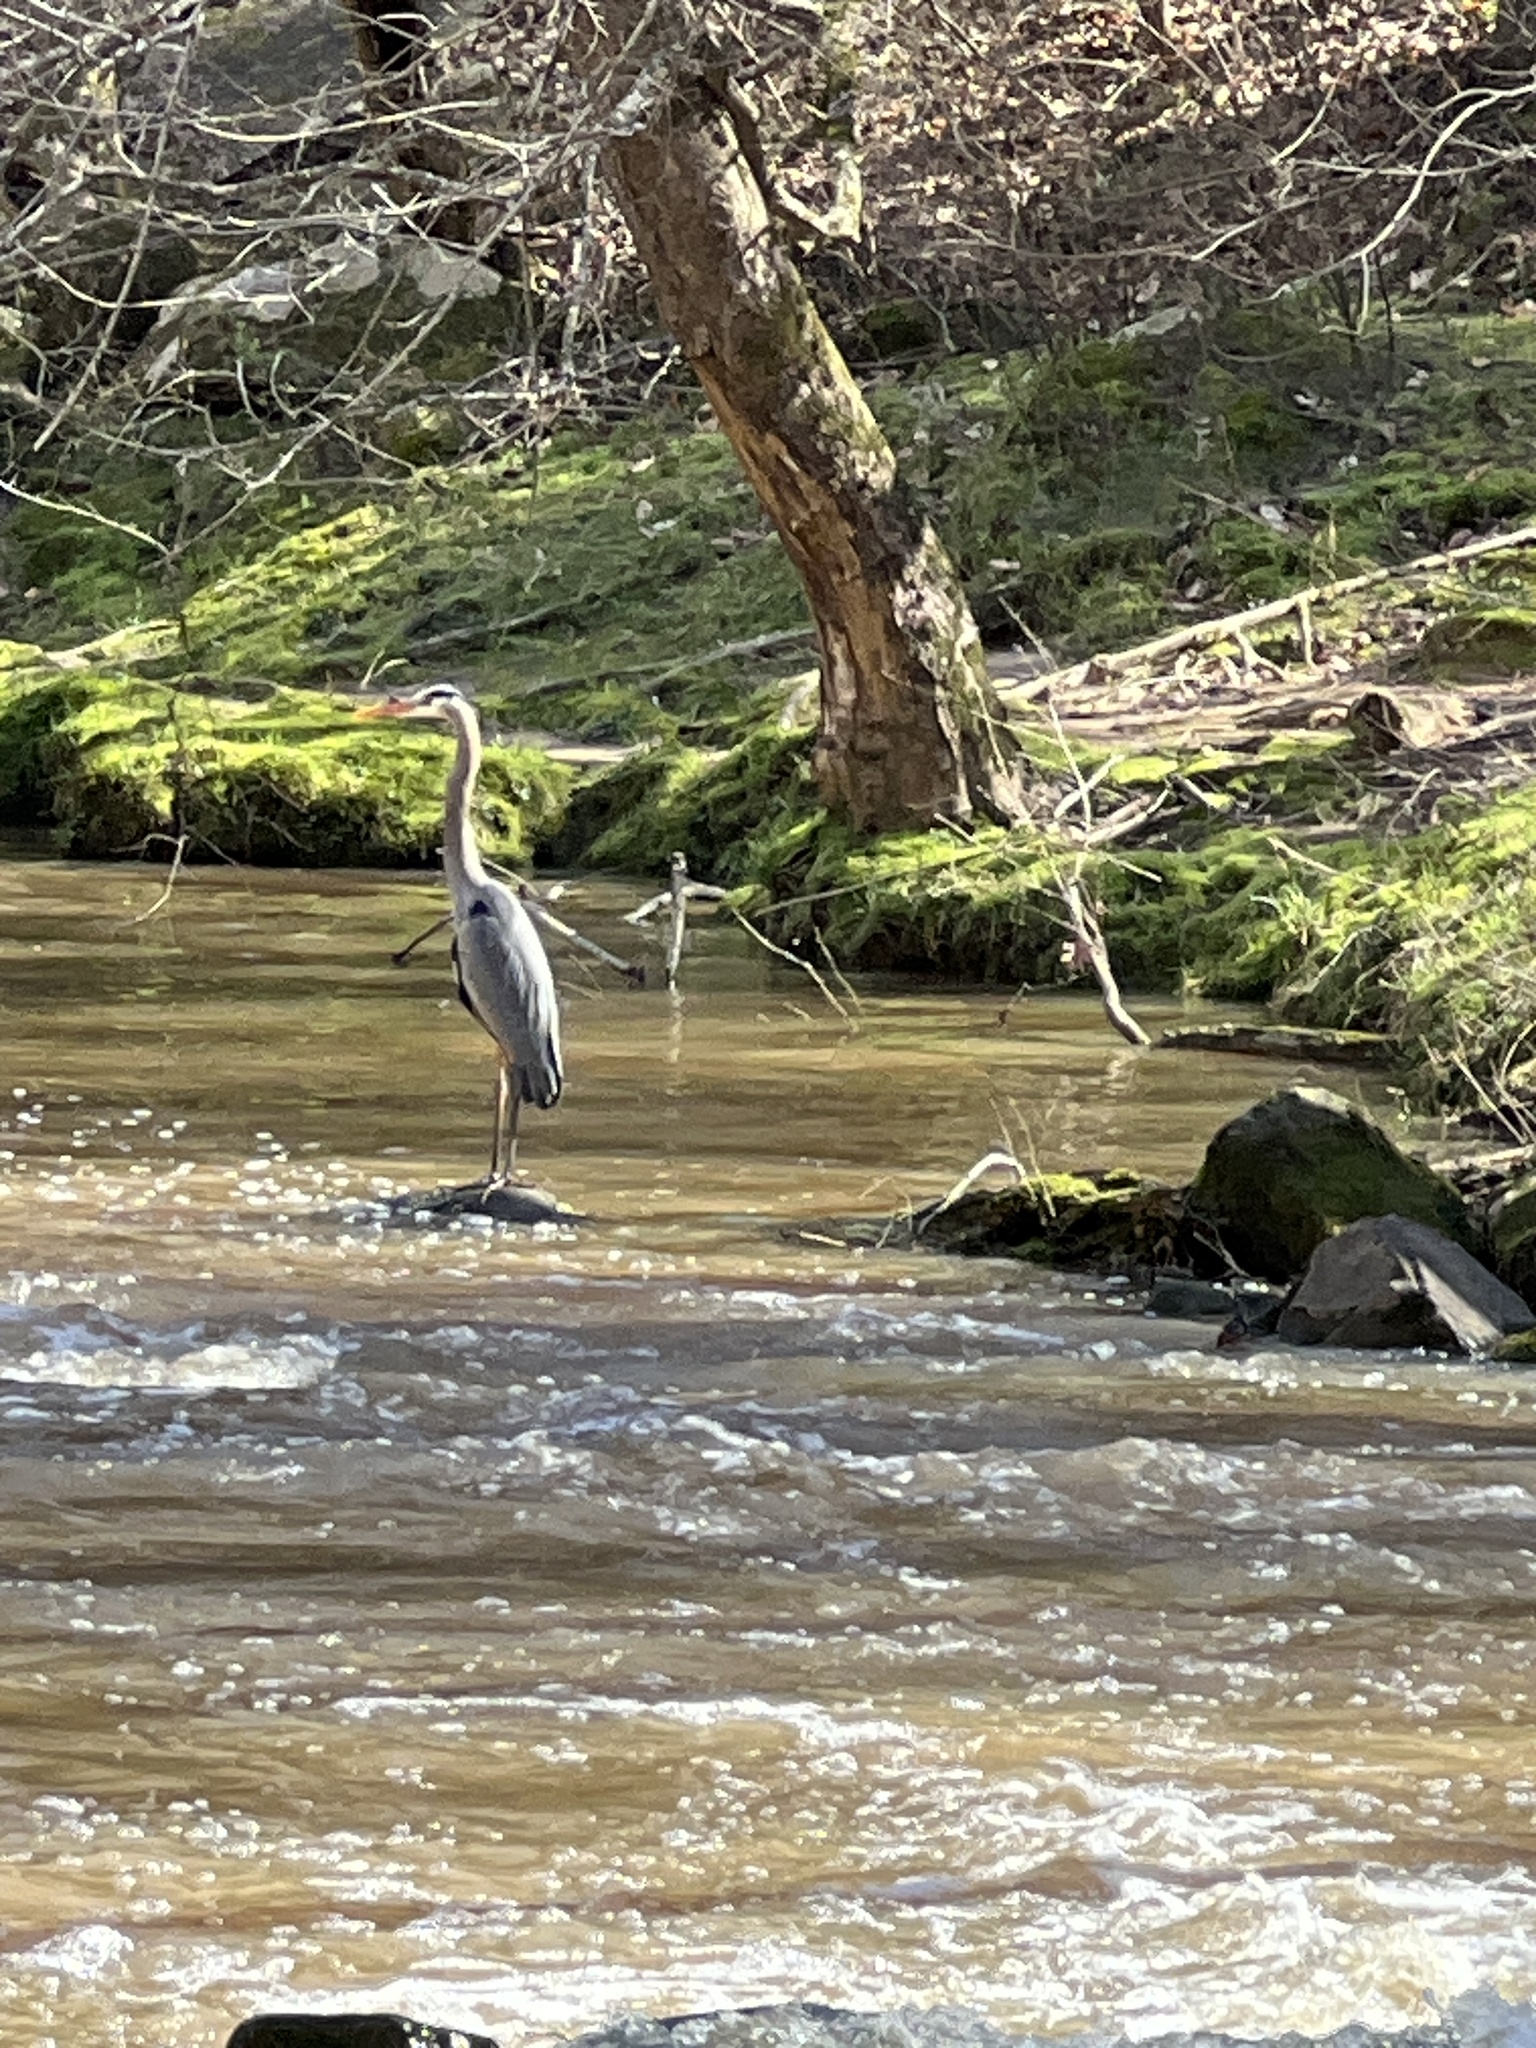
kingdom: Animalia
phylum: Chordata
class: Aves
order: Pelecaniformes
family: Ardeidae
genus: Ardea
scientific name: Ardea herodias
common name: Great blue heron
